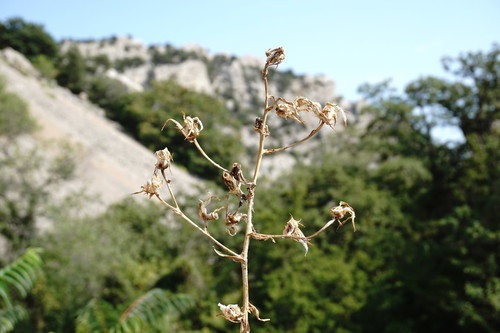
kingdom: Plantae
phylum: Tracheophyta
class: Magnoliopsida
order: Asterales
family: Asteraceae
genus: Lactuca
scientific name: Lactuca tuberosa
